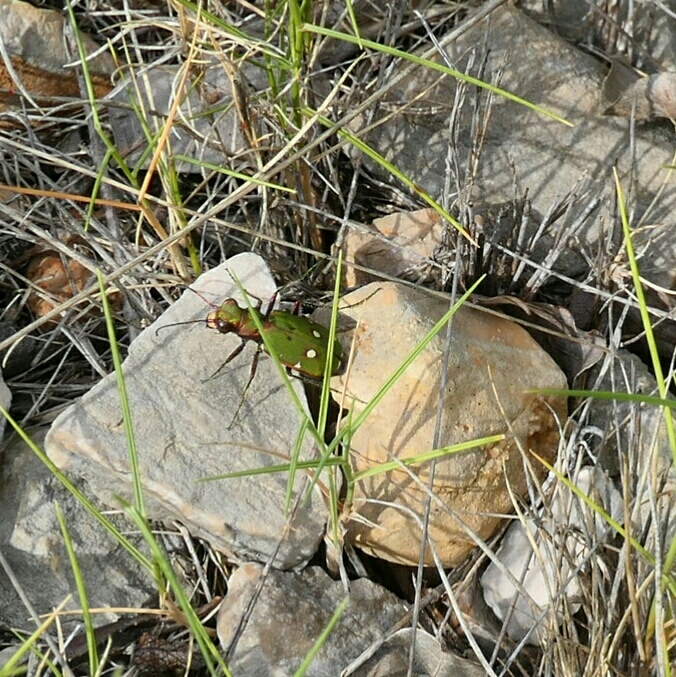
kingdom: Animalia
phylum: Arthropoda
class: Insecta
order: Coleoptera
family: Carabidae
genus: Cicindela
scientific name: Cicindela campestris
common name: Common tiger beetle
